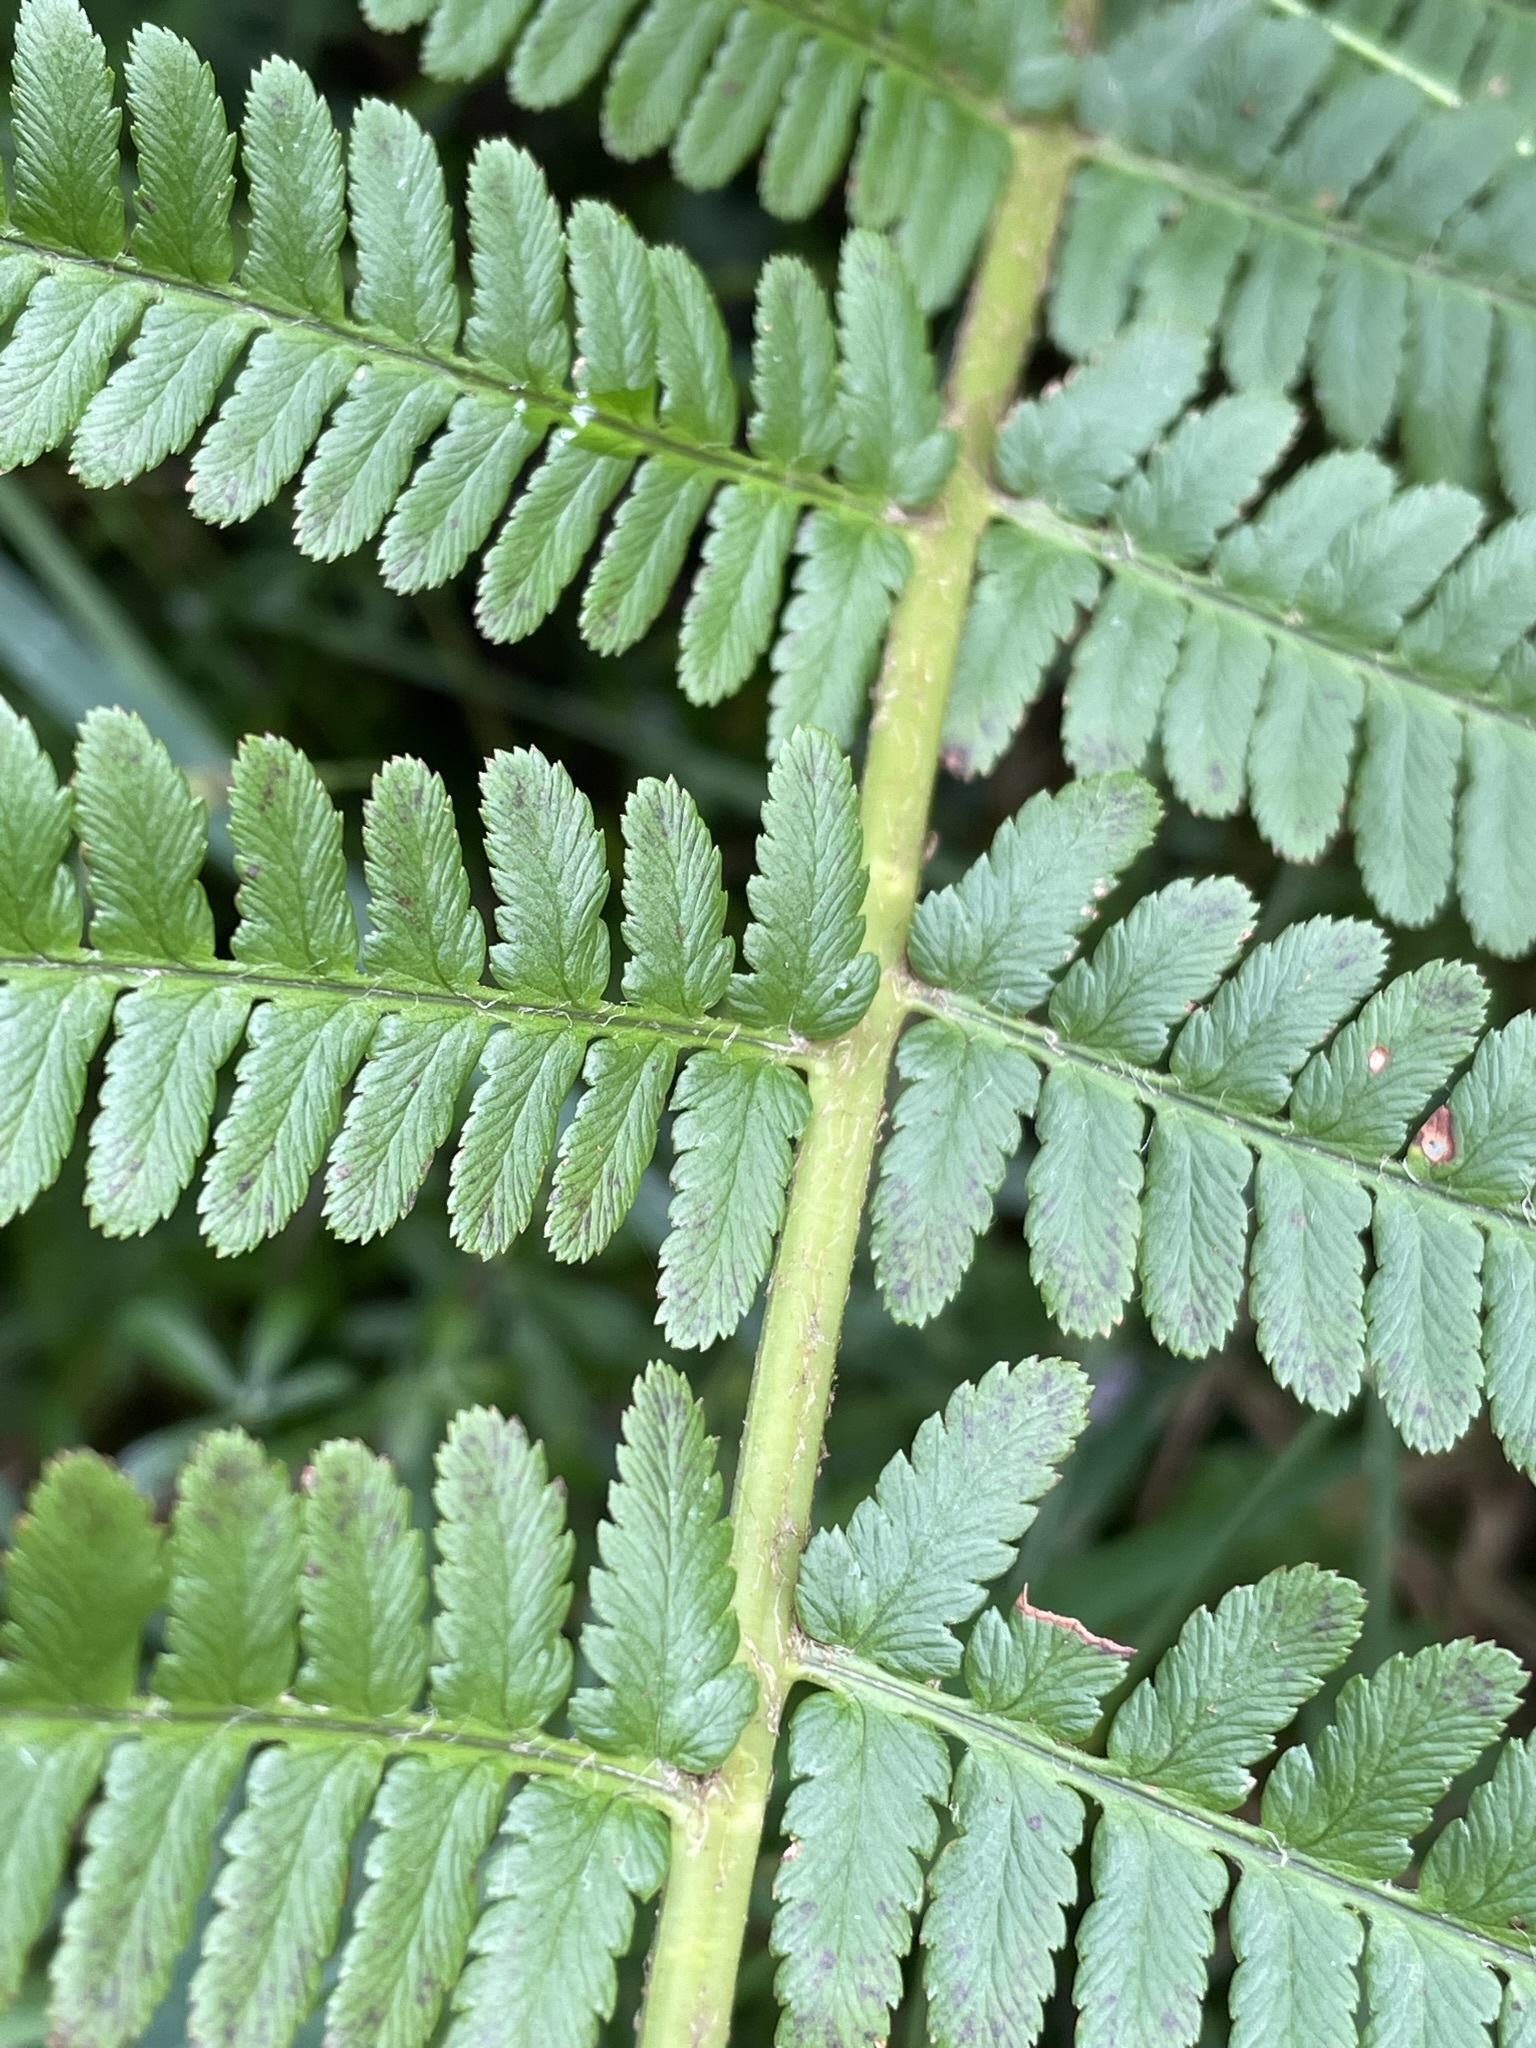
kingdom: Plantae
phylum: Tracheophyta
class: Polypodiopsida
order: Polypodiales
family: Dryopteridaceae
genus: Dryopteris
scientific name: Dryopteris filix-mas
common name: Male fern
